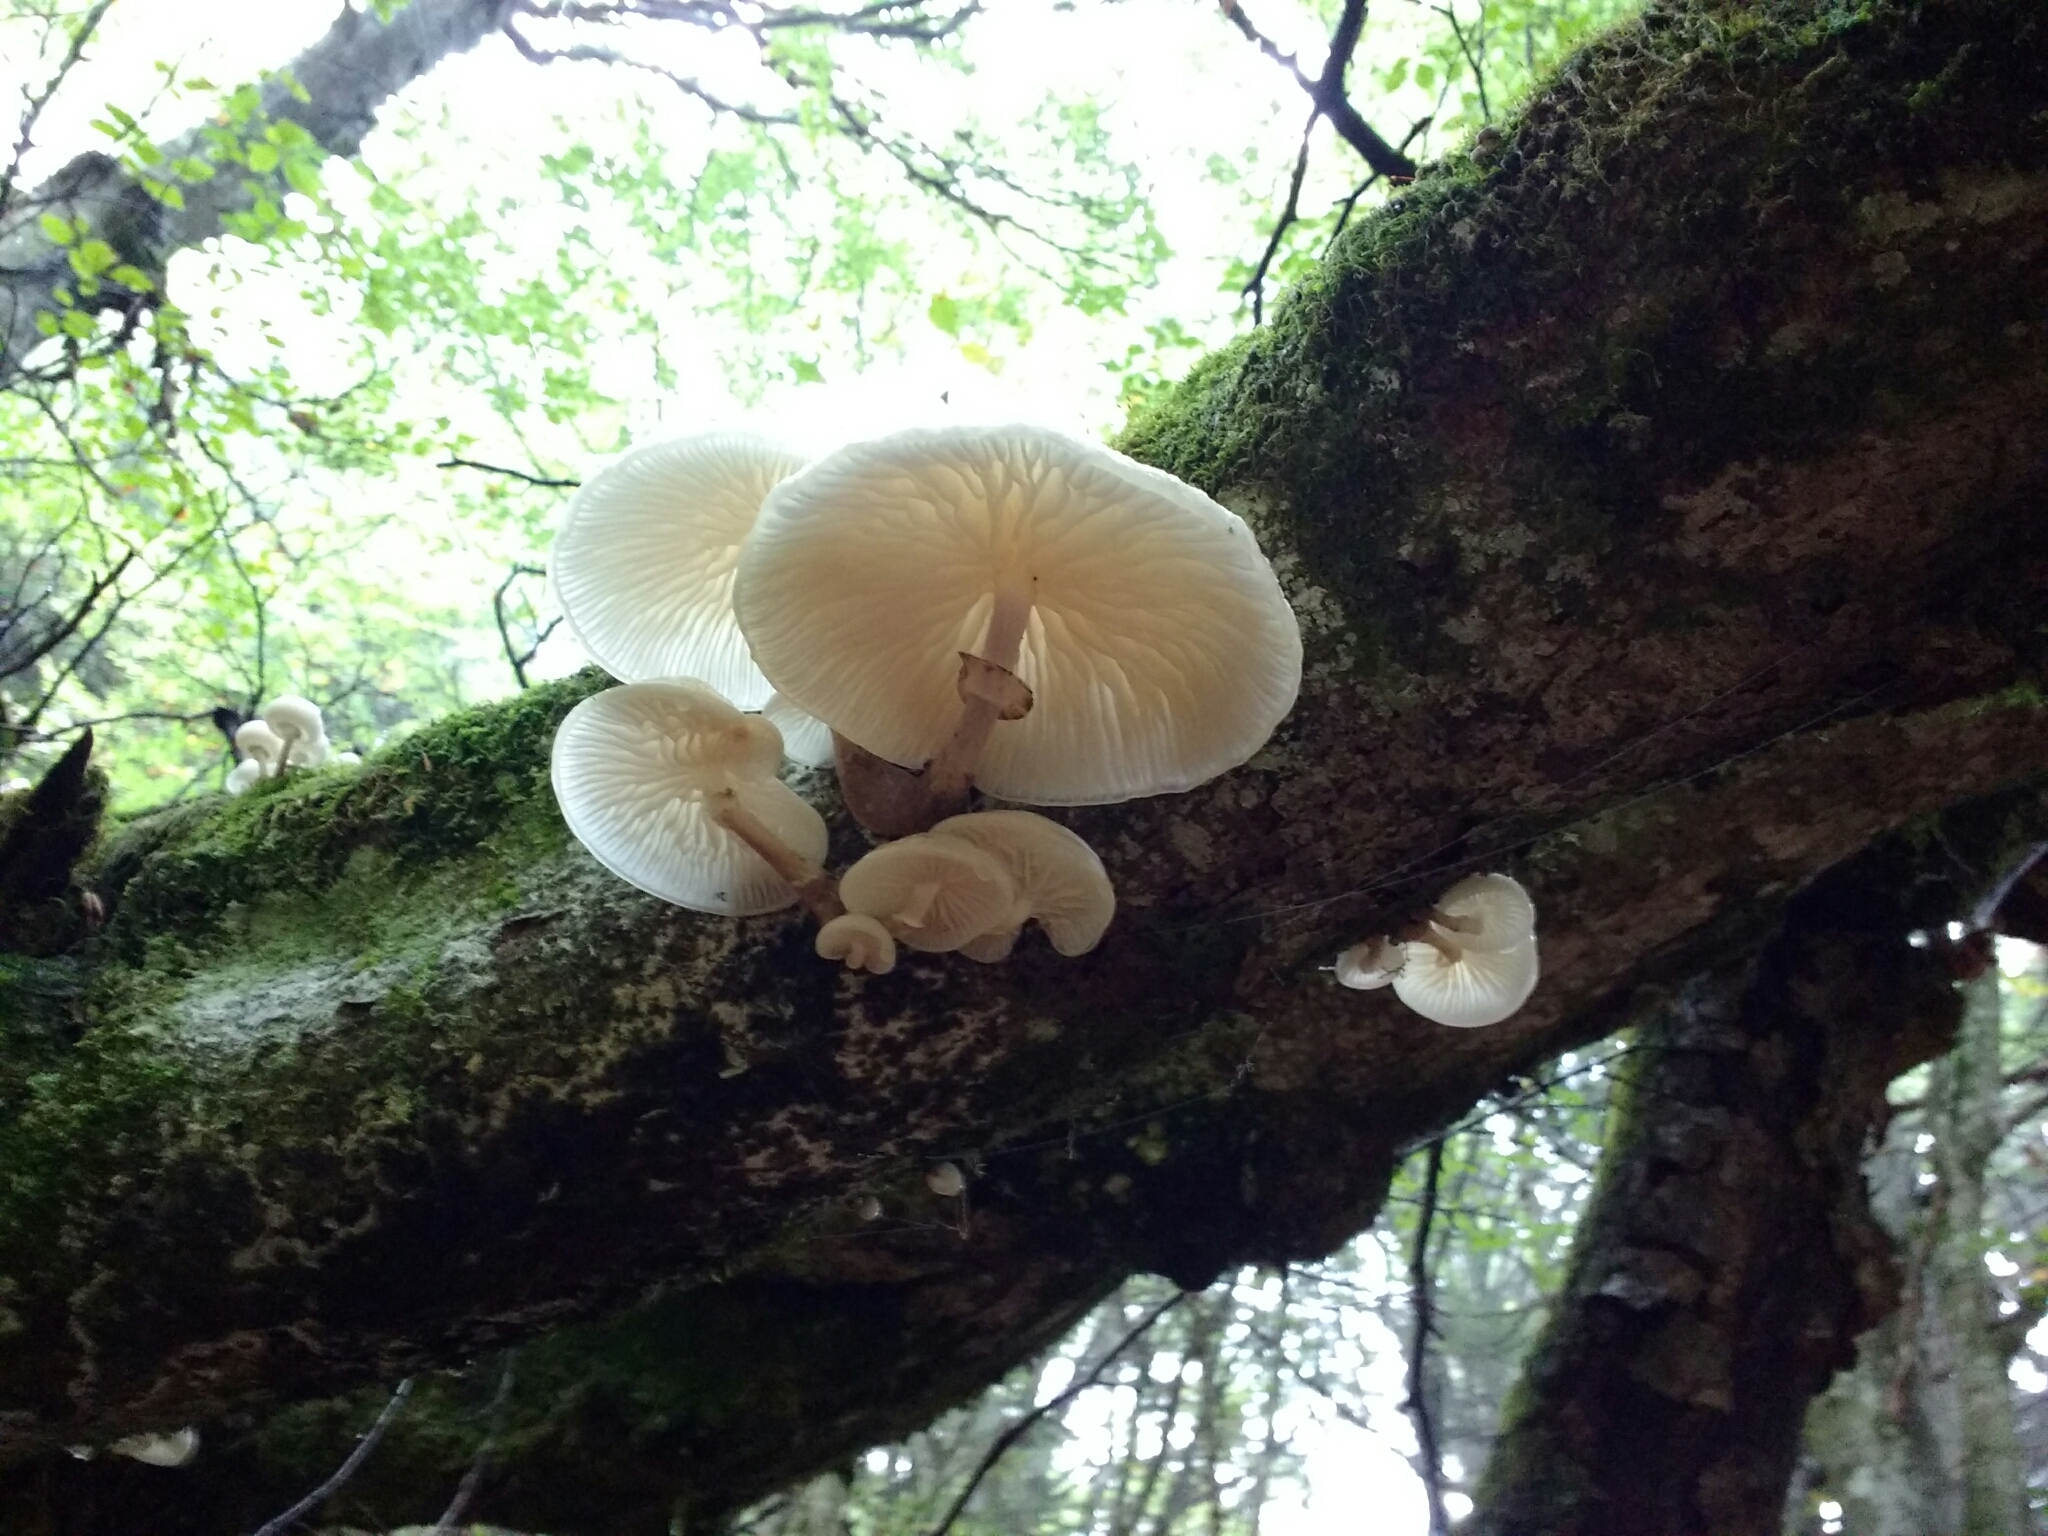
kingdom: Fungi
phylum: Basidiomycota
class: Agaricomycetes
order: Agaricales
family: Physalacriaceae
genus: Mucidula
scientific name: Mucidula mucida
